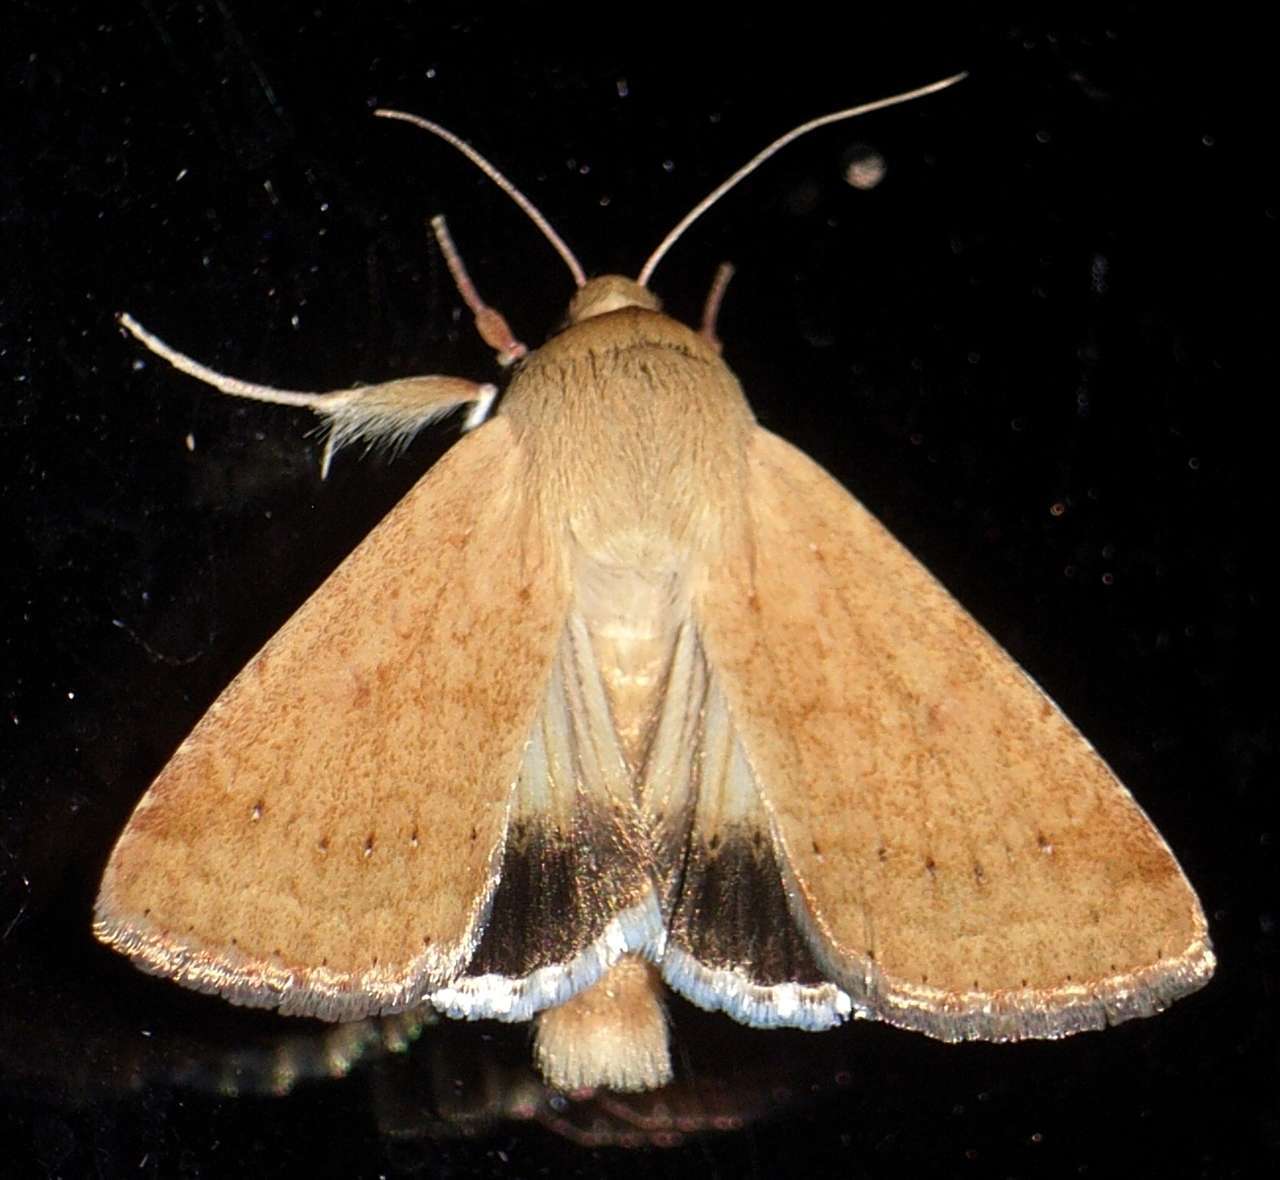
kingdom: Animalia
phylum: Arthropoda
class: Insecta
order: Lepidoptera
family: Noctuidae
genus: Helicoverpa
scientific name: Helicoverpa punctigera
